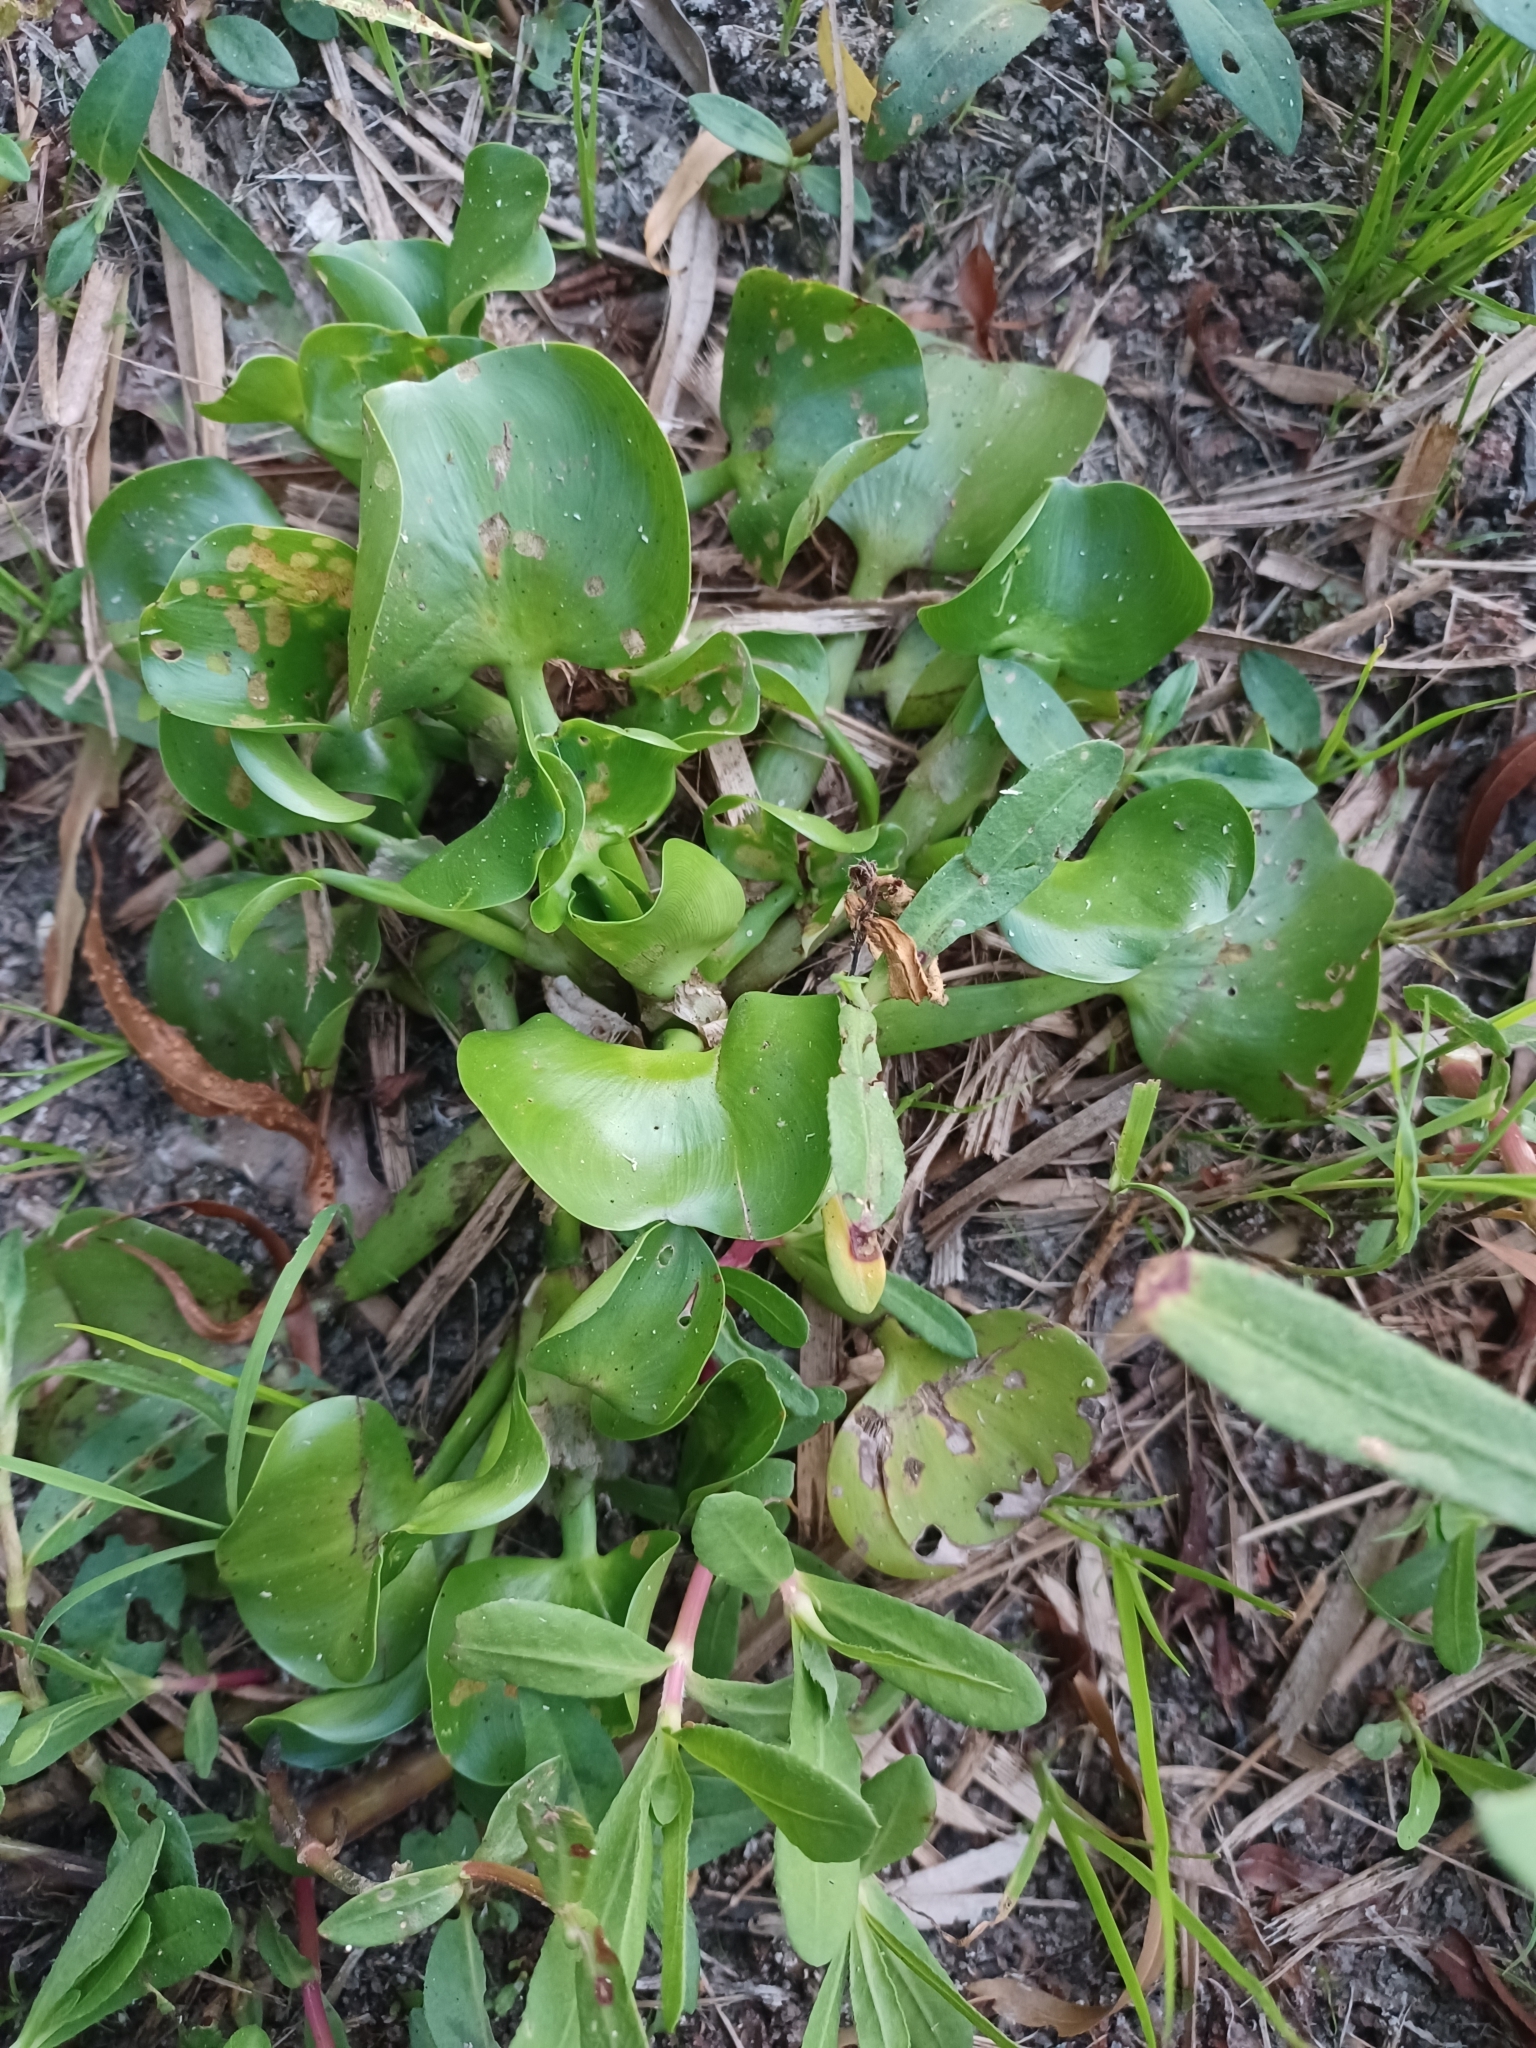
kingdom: Plantae
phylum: Tracheophyta
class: Liliopsida
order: Commelinales
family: Pontederiaceae
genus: Pontederia
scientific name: Pontederia crassipes
